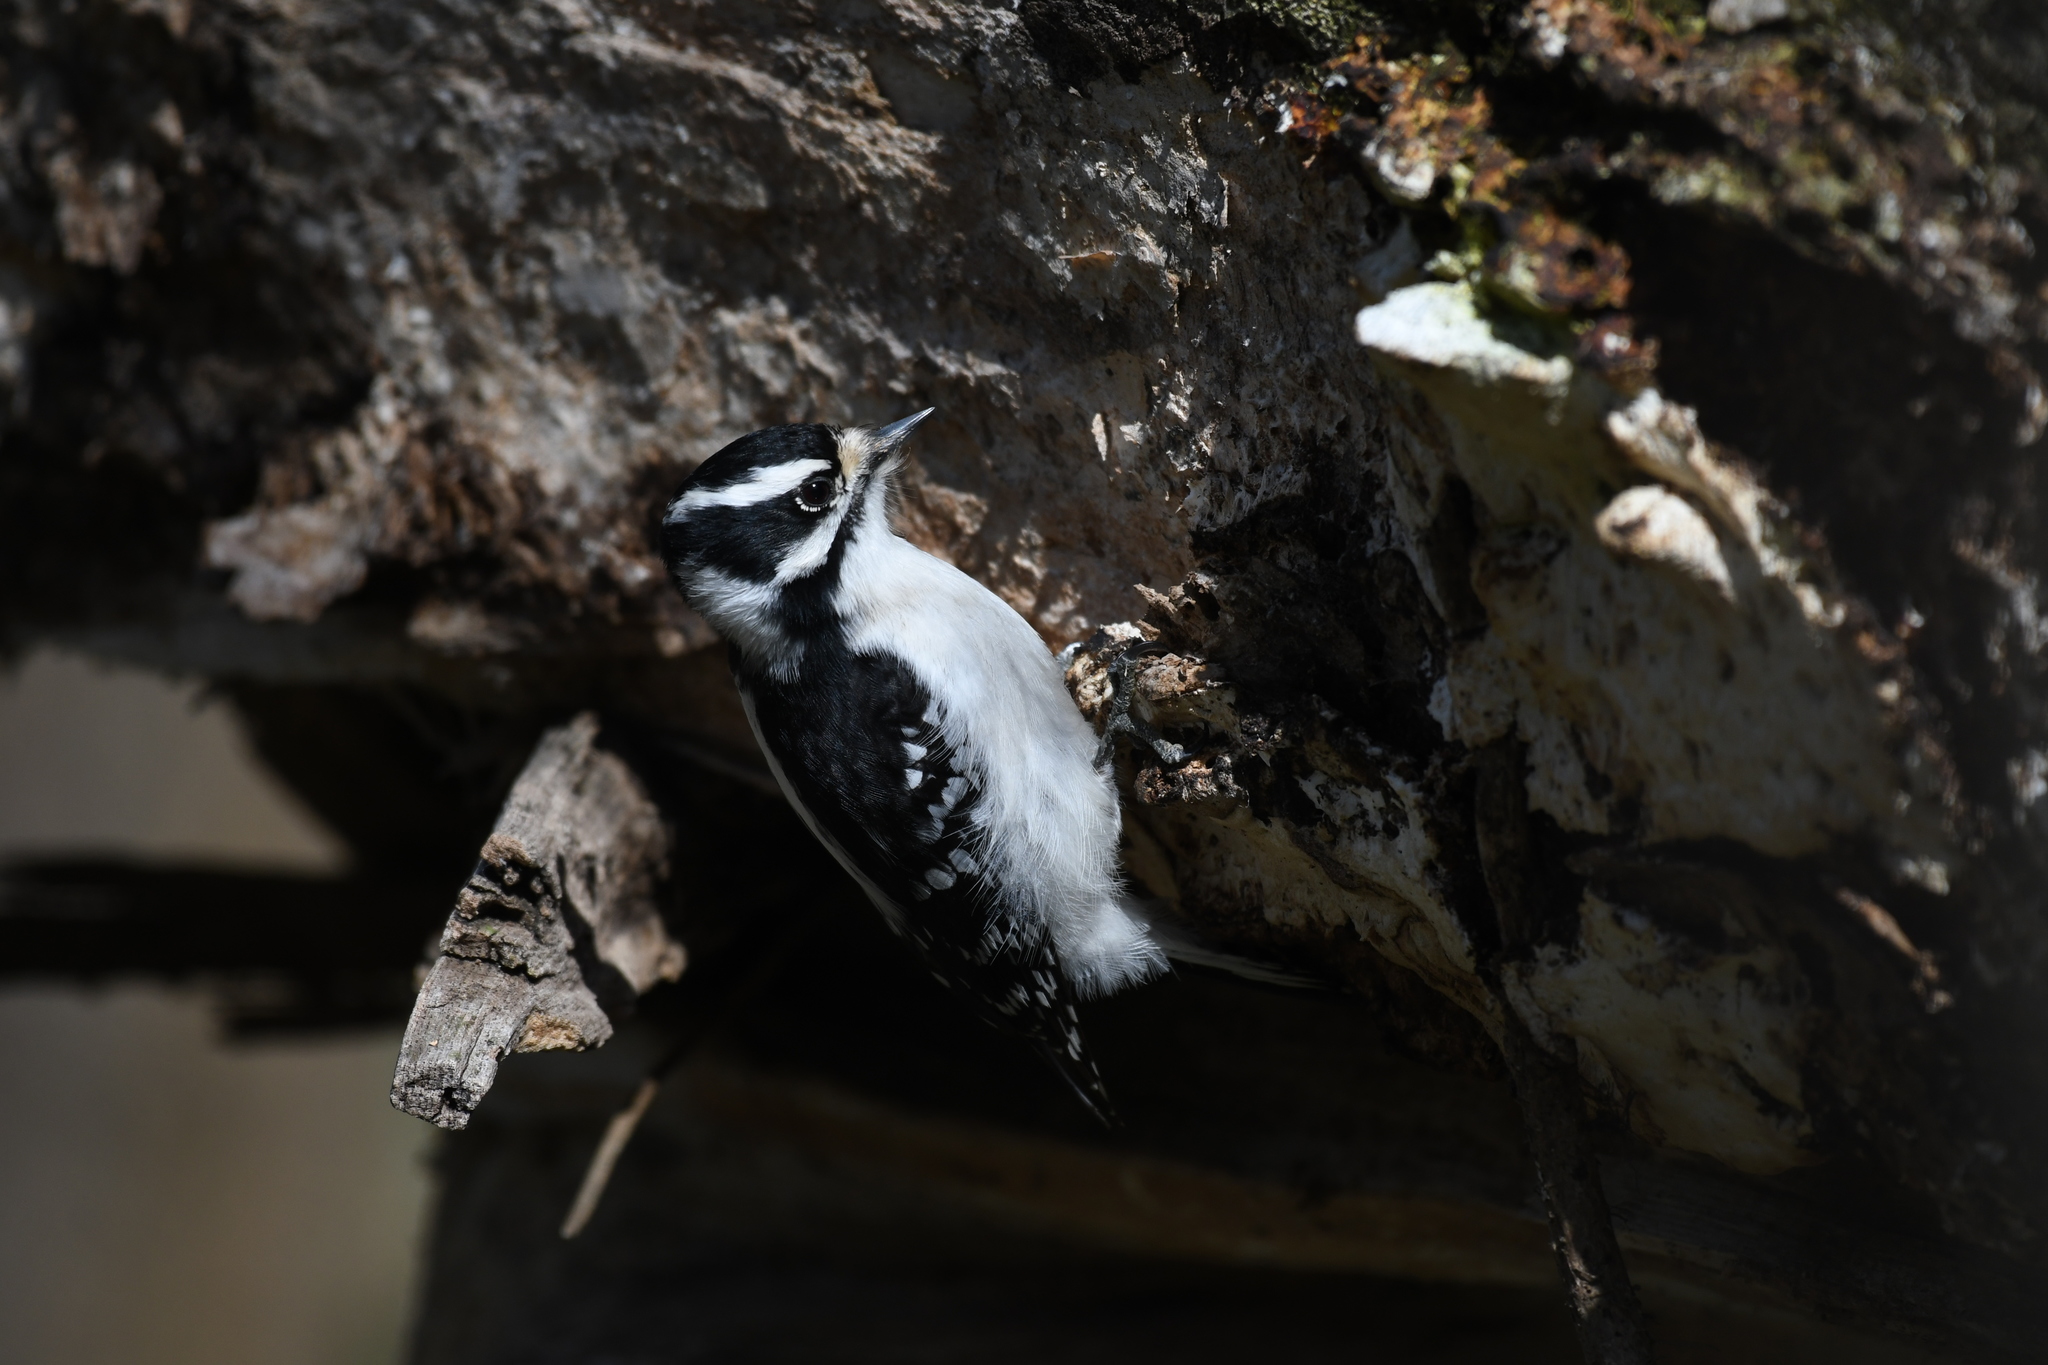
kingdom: Animalia
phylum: Chordata
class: Aves
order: Piciformes
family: Picidae
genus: Dryobates
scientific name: Dryobates pubescens
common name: Downy woodpecker
